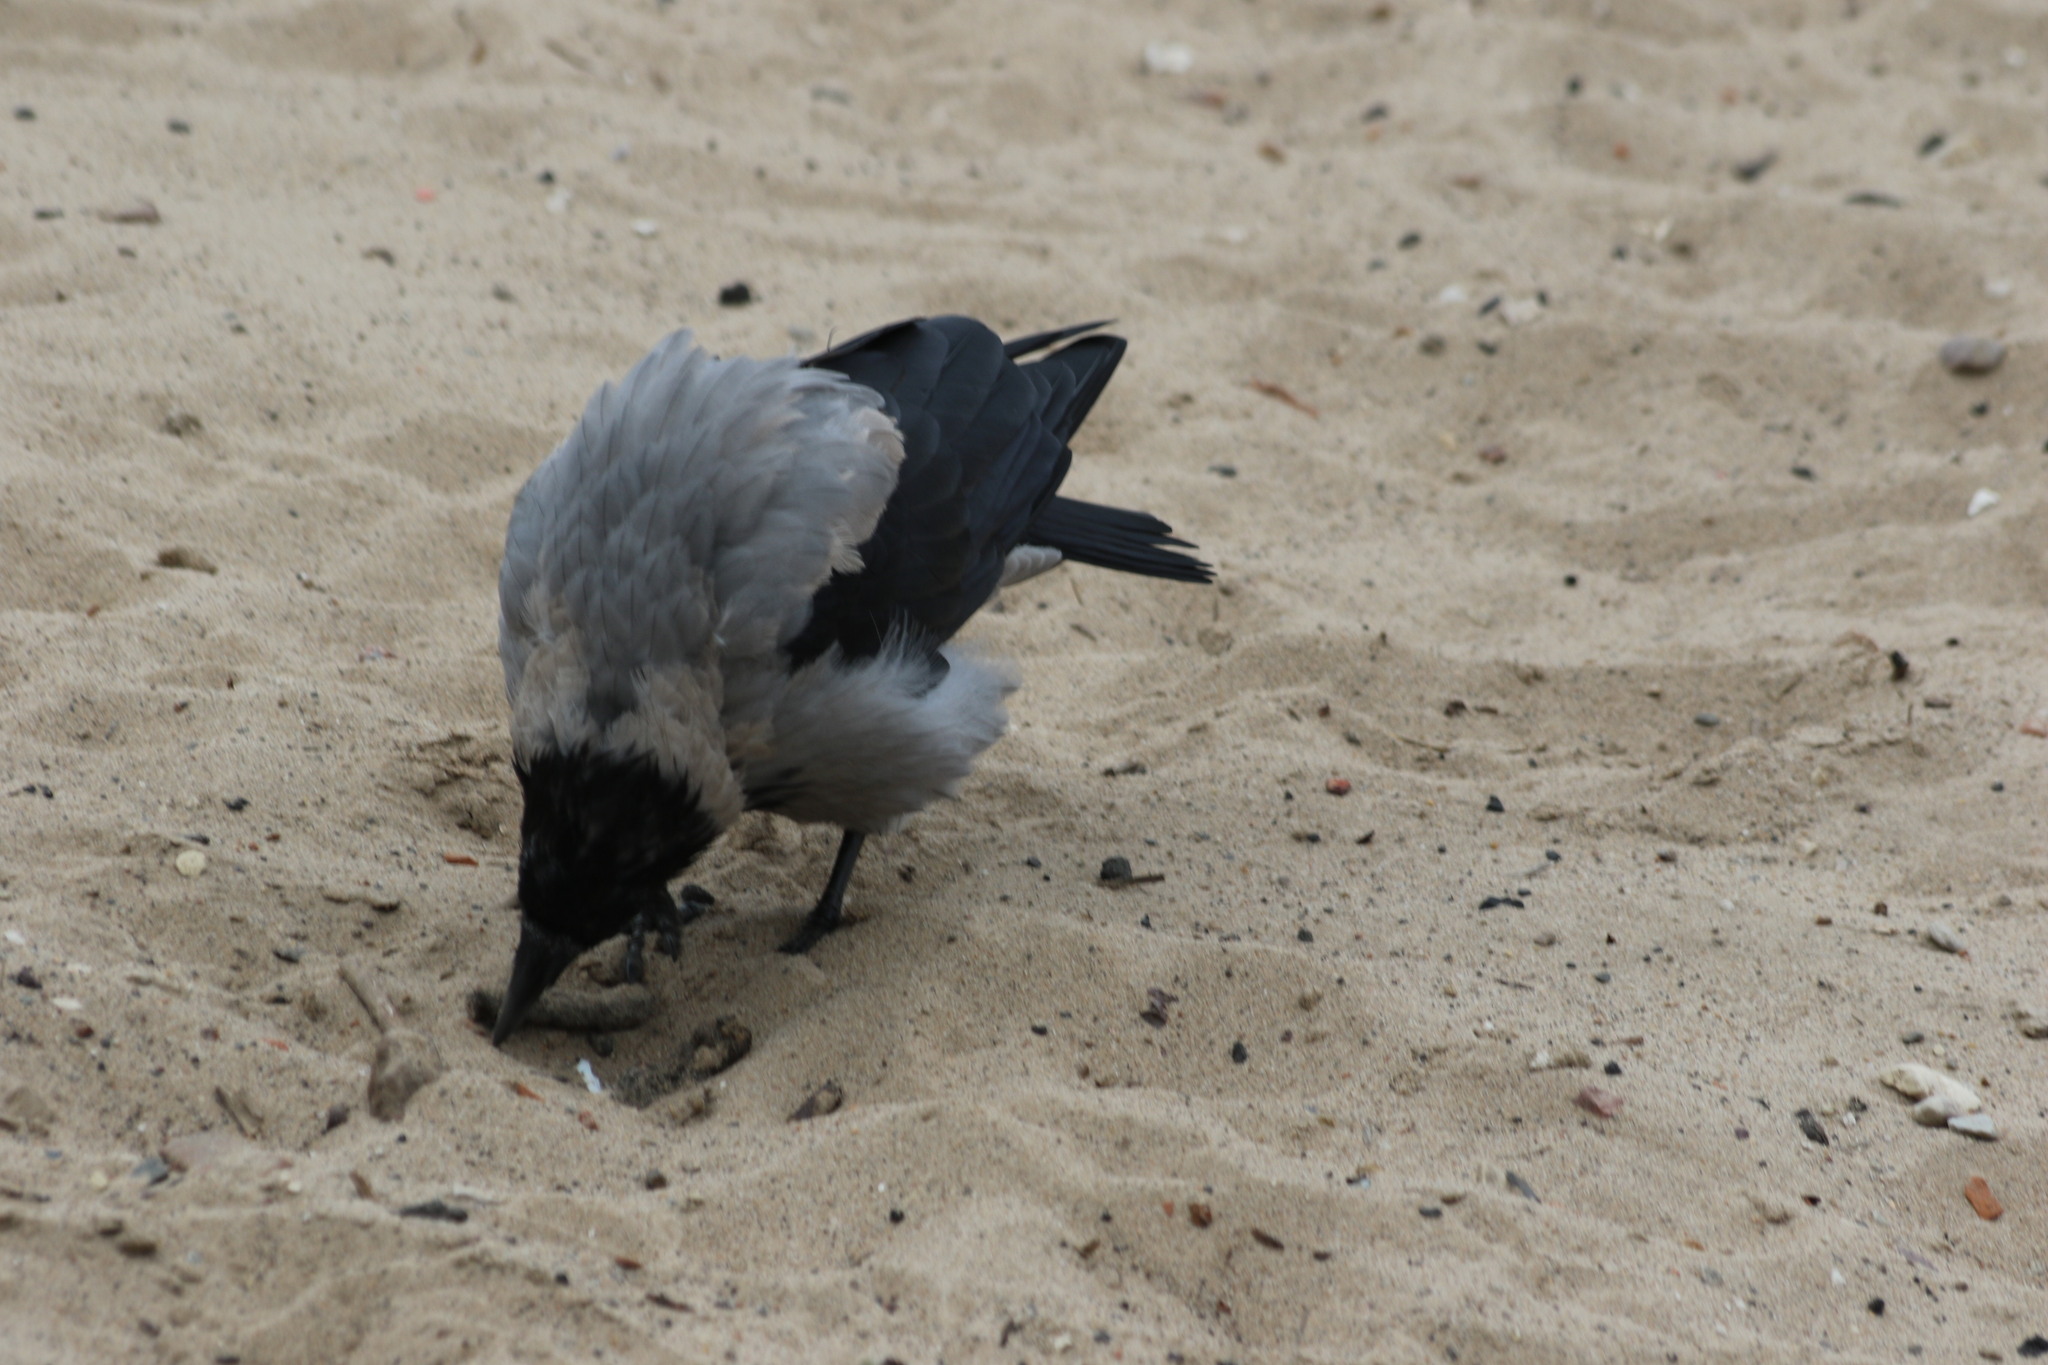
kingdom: Animalia
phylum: Chordata
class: Aves
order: Passeriformes
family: Corvidae
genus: Corvus
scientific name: Corvus cornix
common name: Hooded crow
